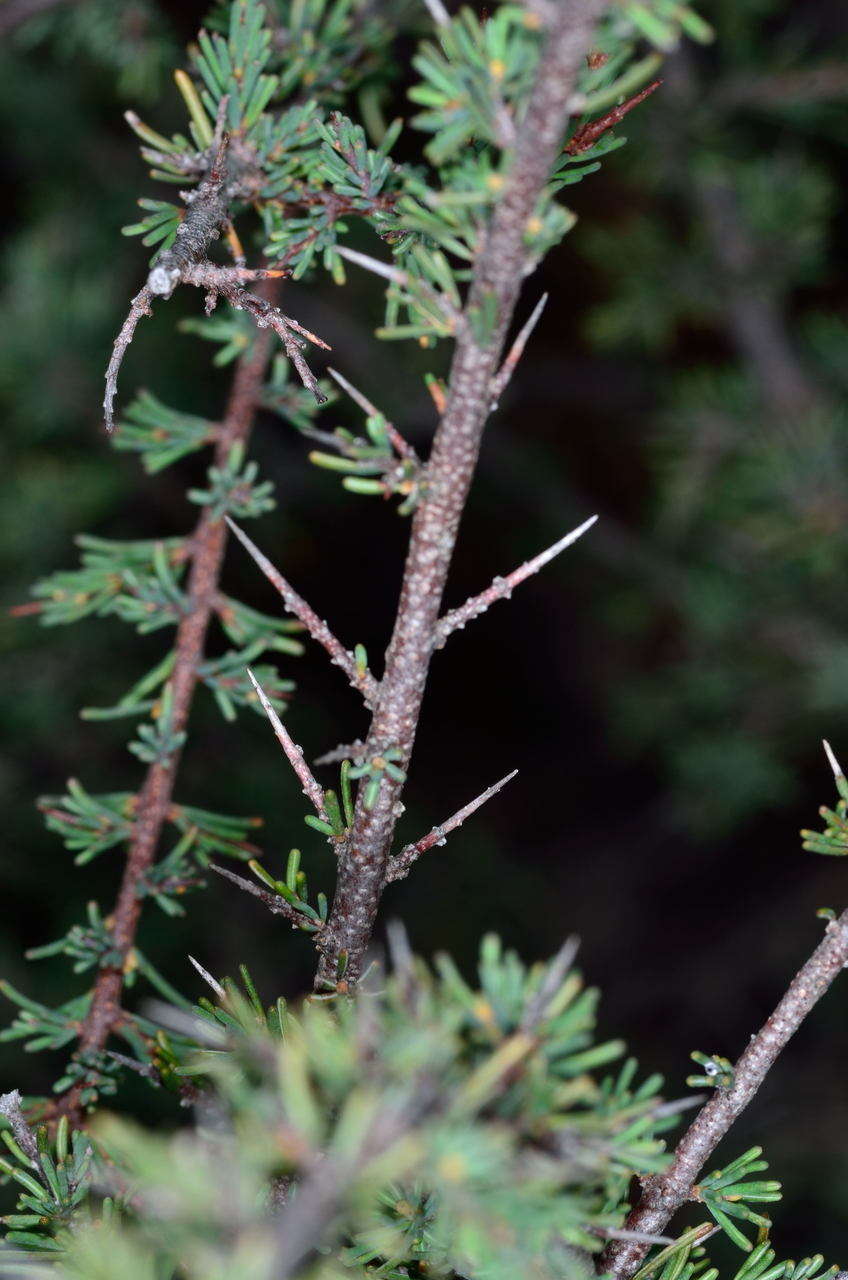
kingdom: Plantae
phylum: Tracheophyta
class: Magnoliopsida
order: Fabales
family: Fabaceae
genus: Dillwynia
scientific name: Dillwynia ramosissima
